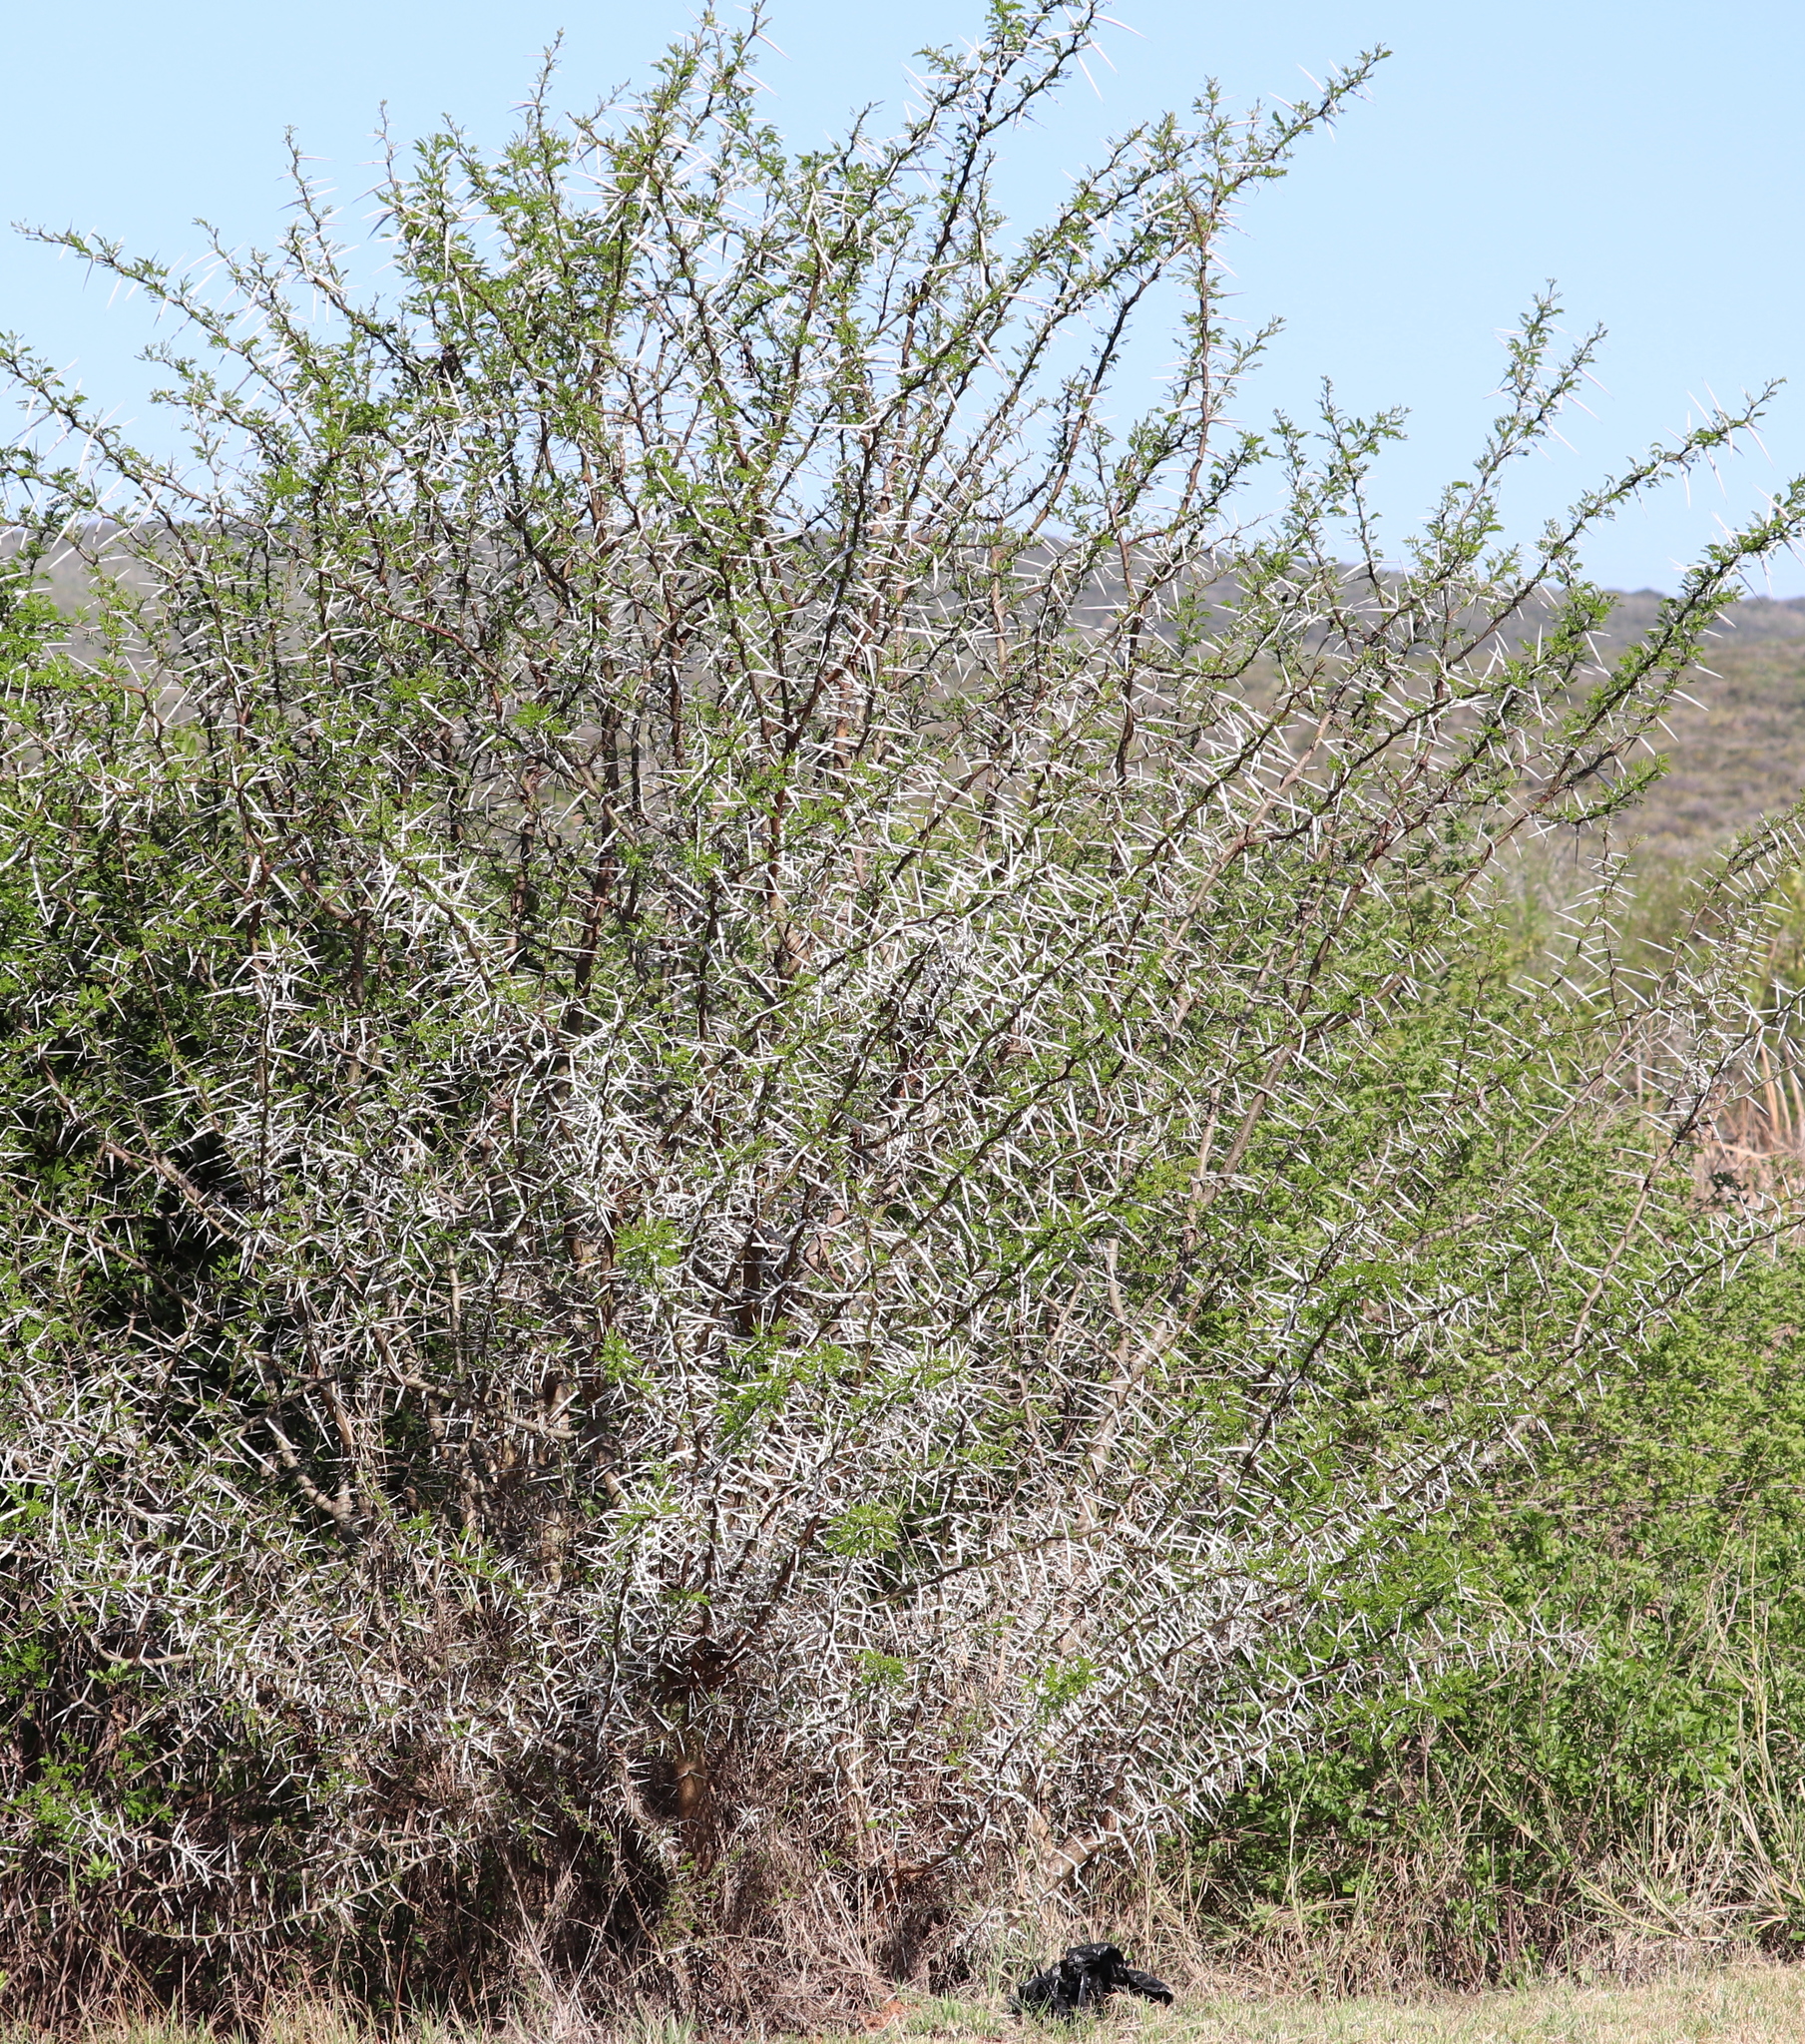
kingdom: Plantae
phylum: Tracheophyta
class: Magnoliopsida
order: Fabales
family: Fabaceae
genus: Vachellia
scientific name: Vachellia karroo
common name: Sweet thorn
